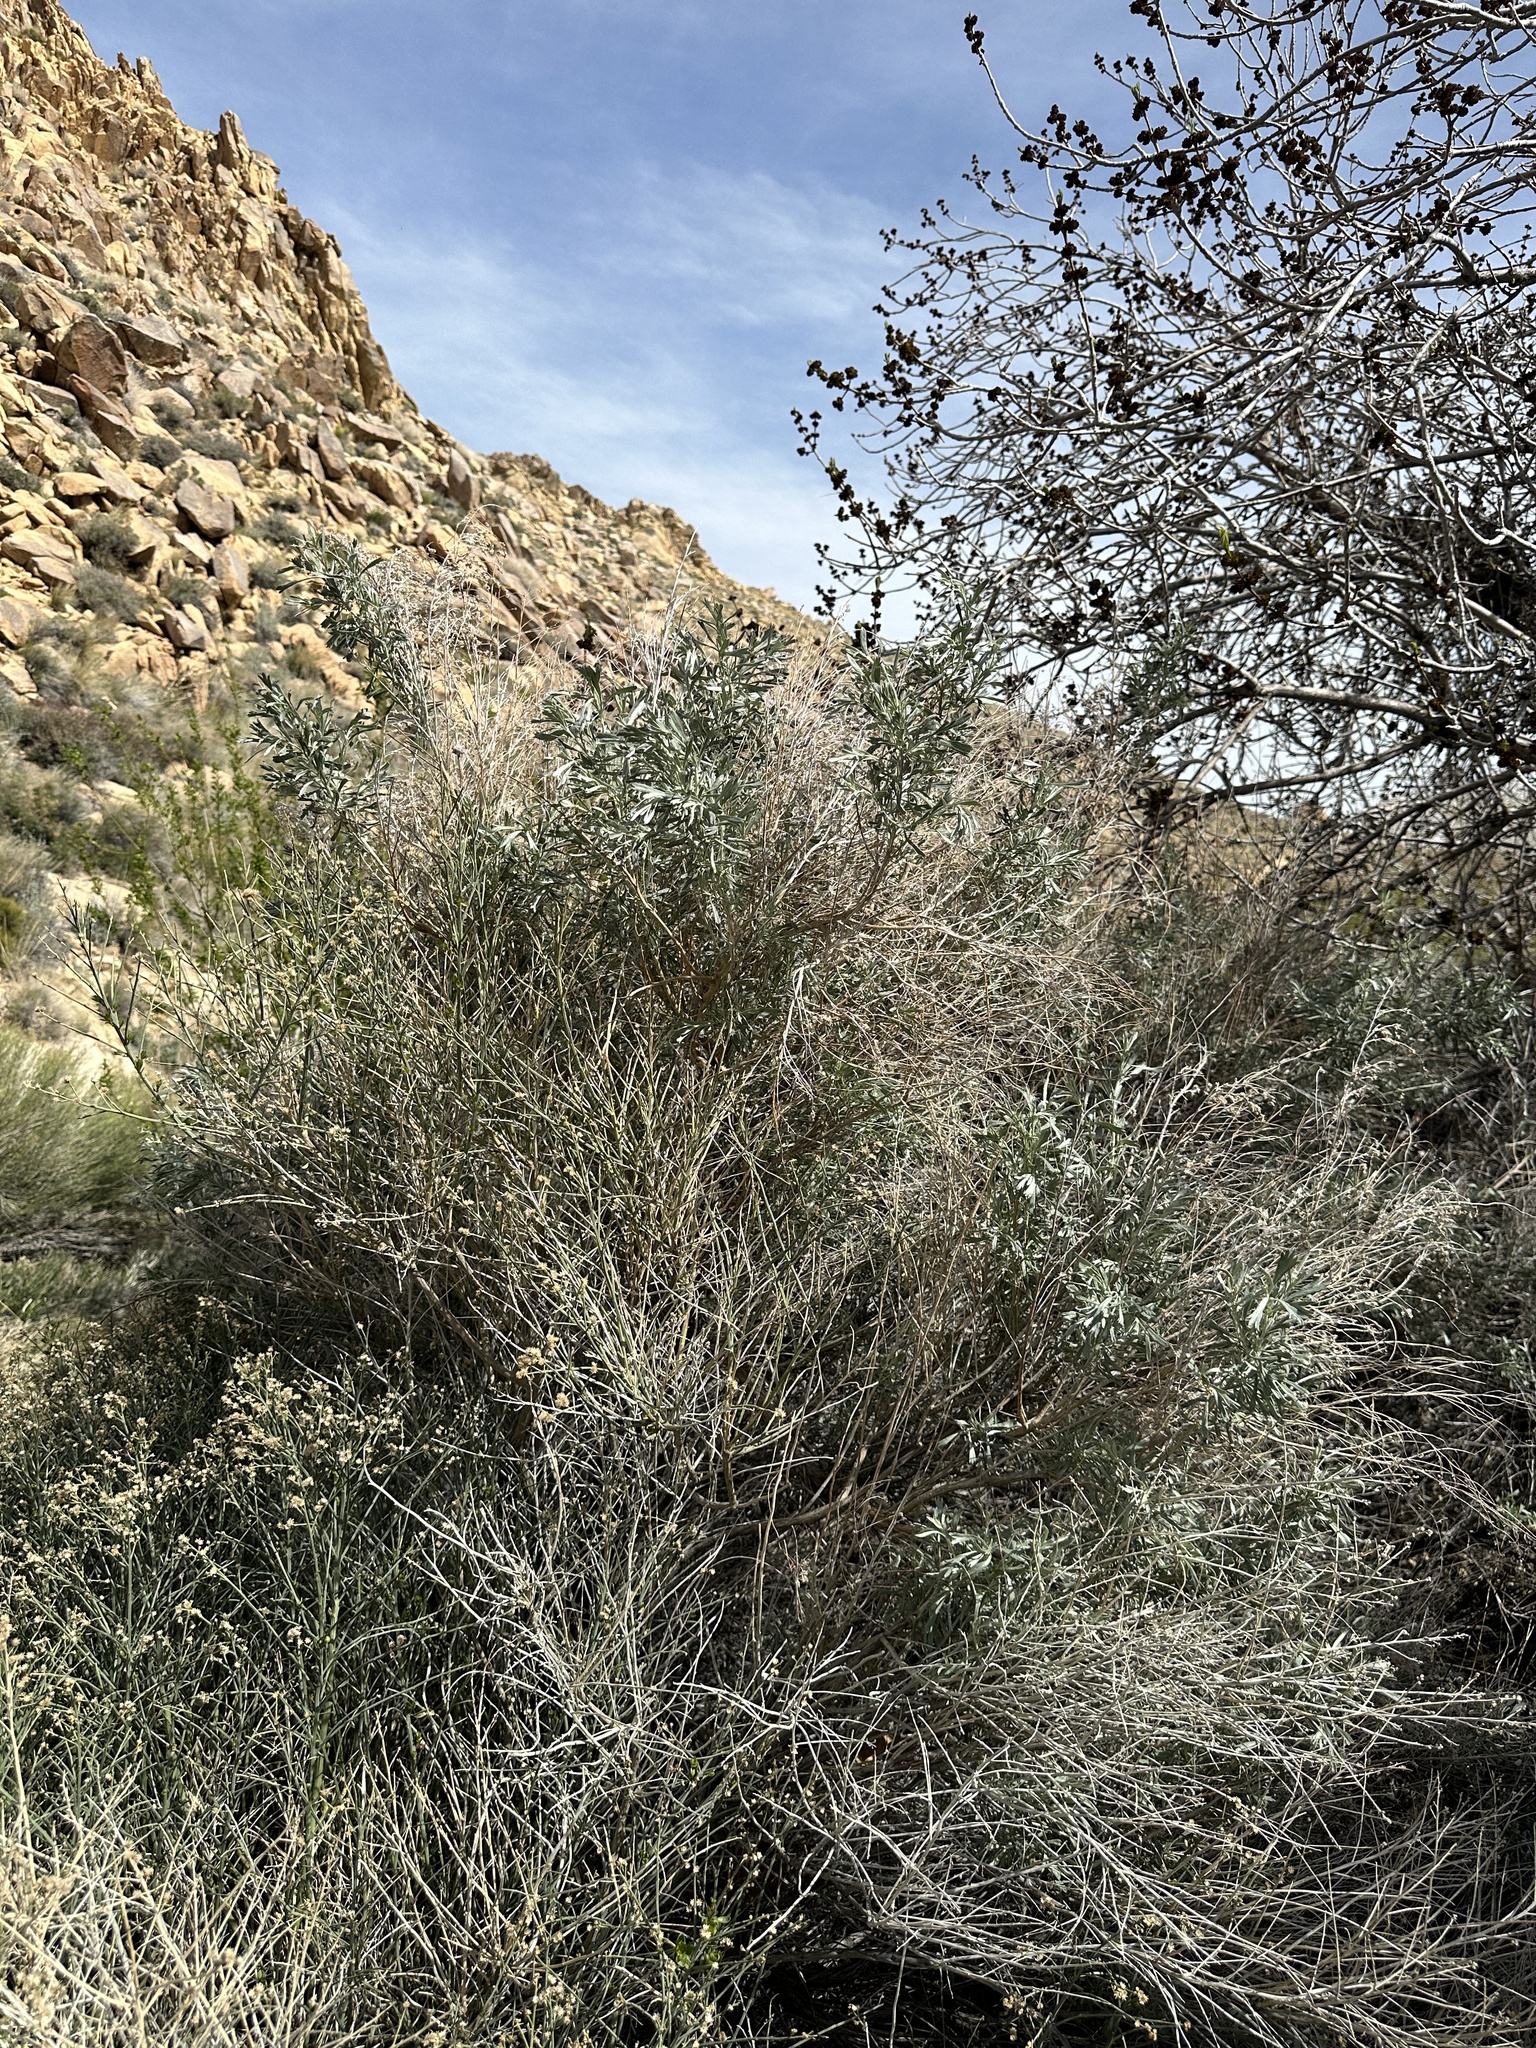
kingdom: Plantae
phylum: Tracheophyta
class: Magnoliopsida
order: Asterales
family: Asteraceae
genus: Artemisia
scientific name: Artemisia tridentata
